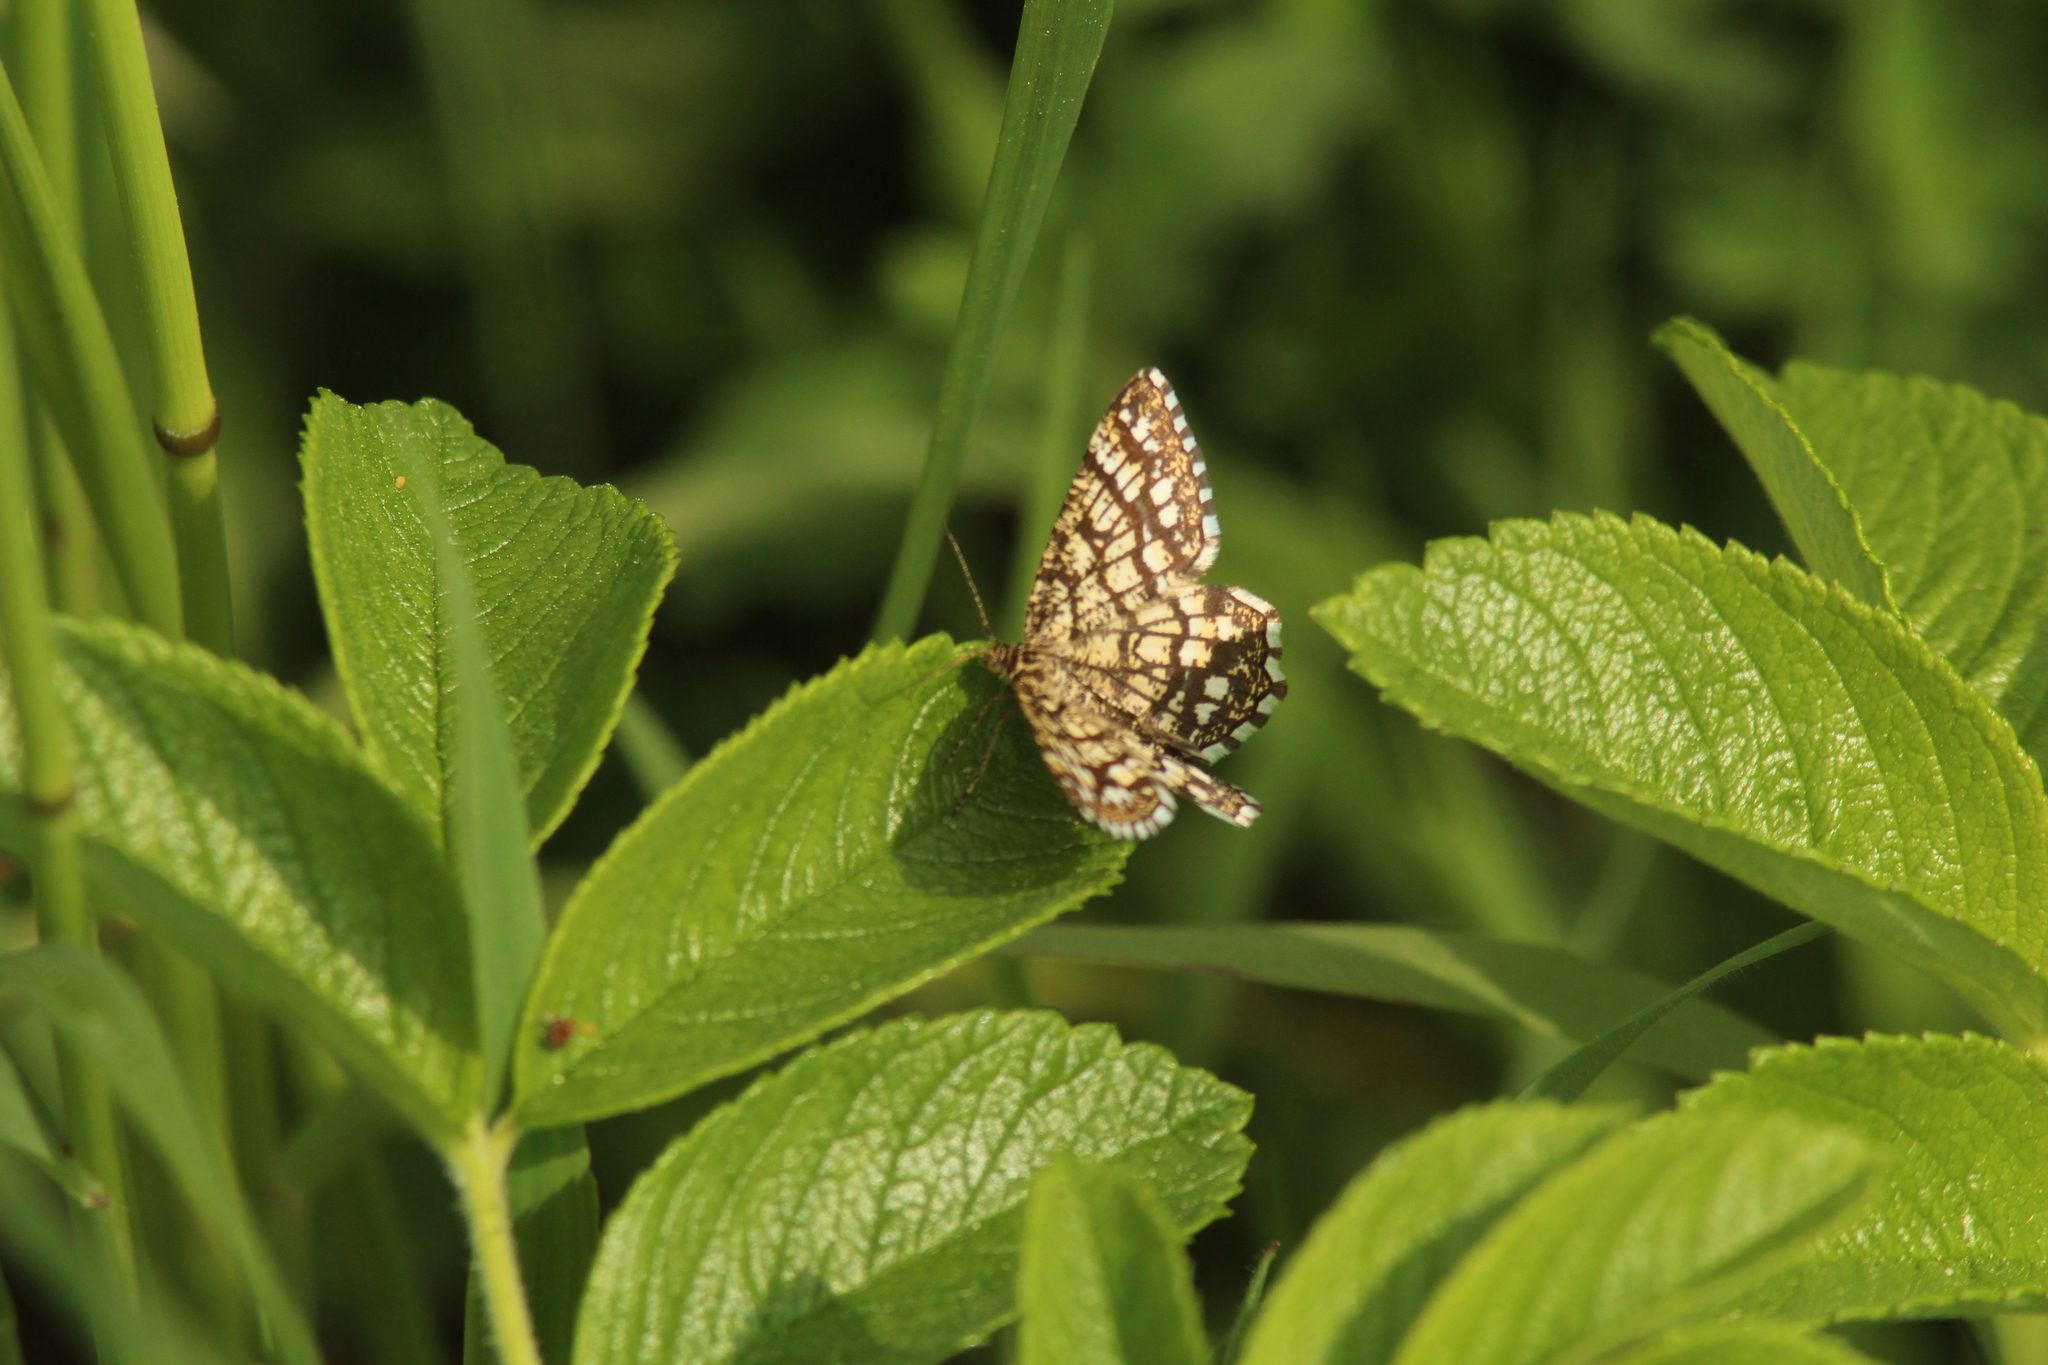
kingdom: Animalia
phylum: Arthropoda
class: Insecta
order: Lepidoptera
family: Geometridae
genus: Chiasmia
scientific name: Chiasmia clathrata
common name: Latticed heath
